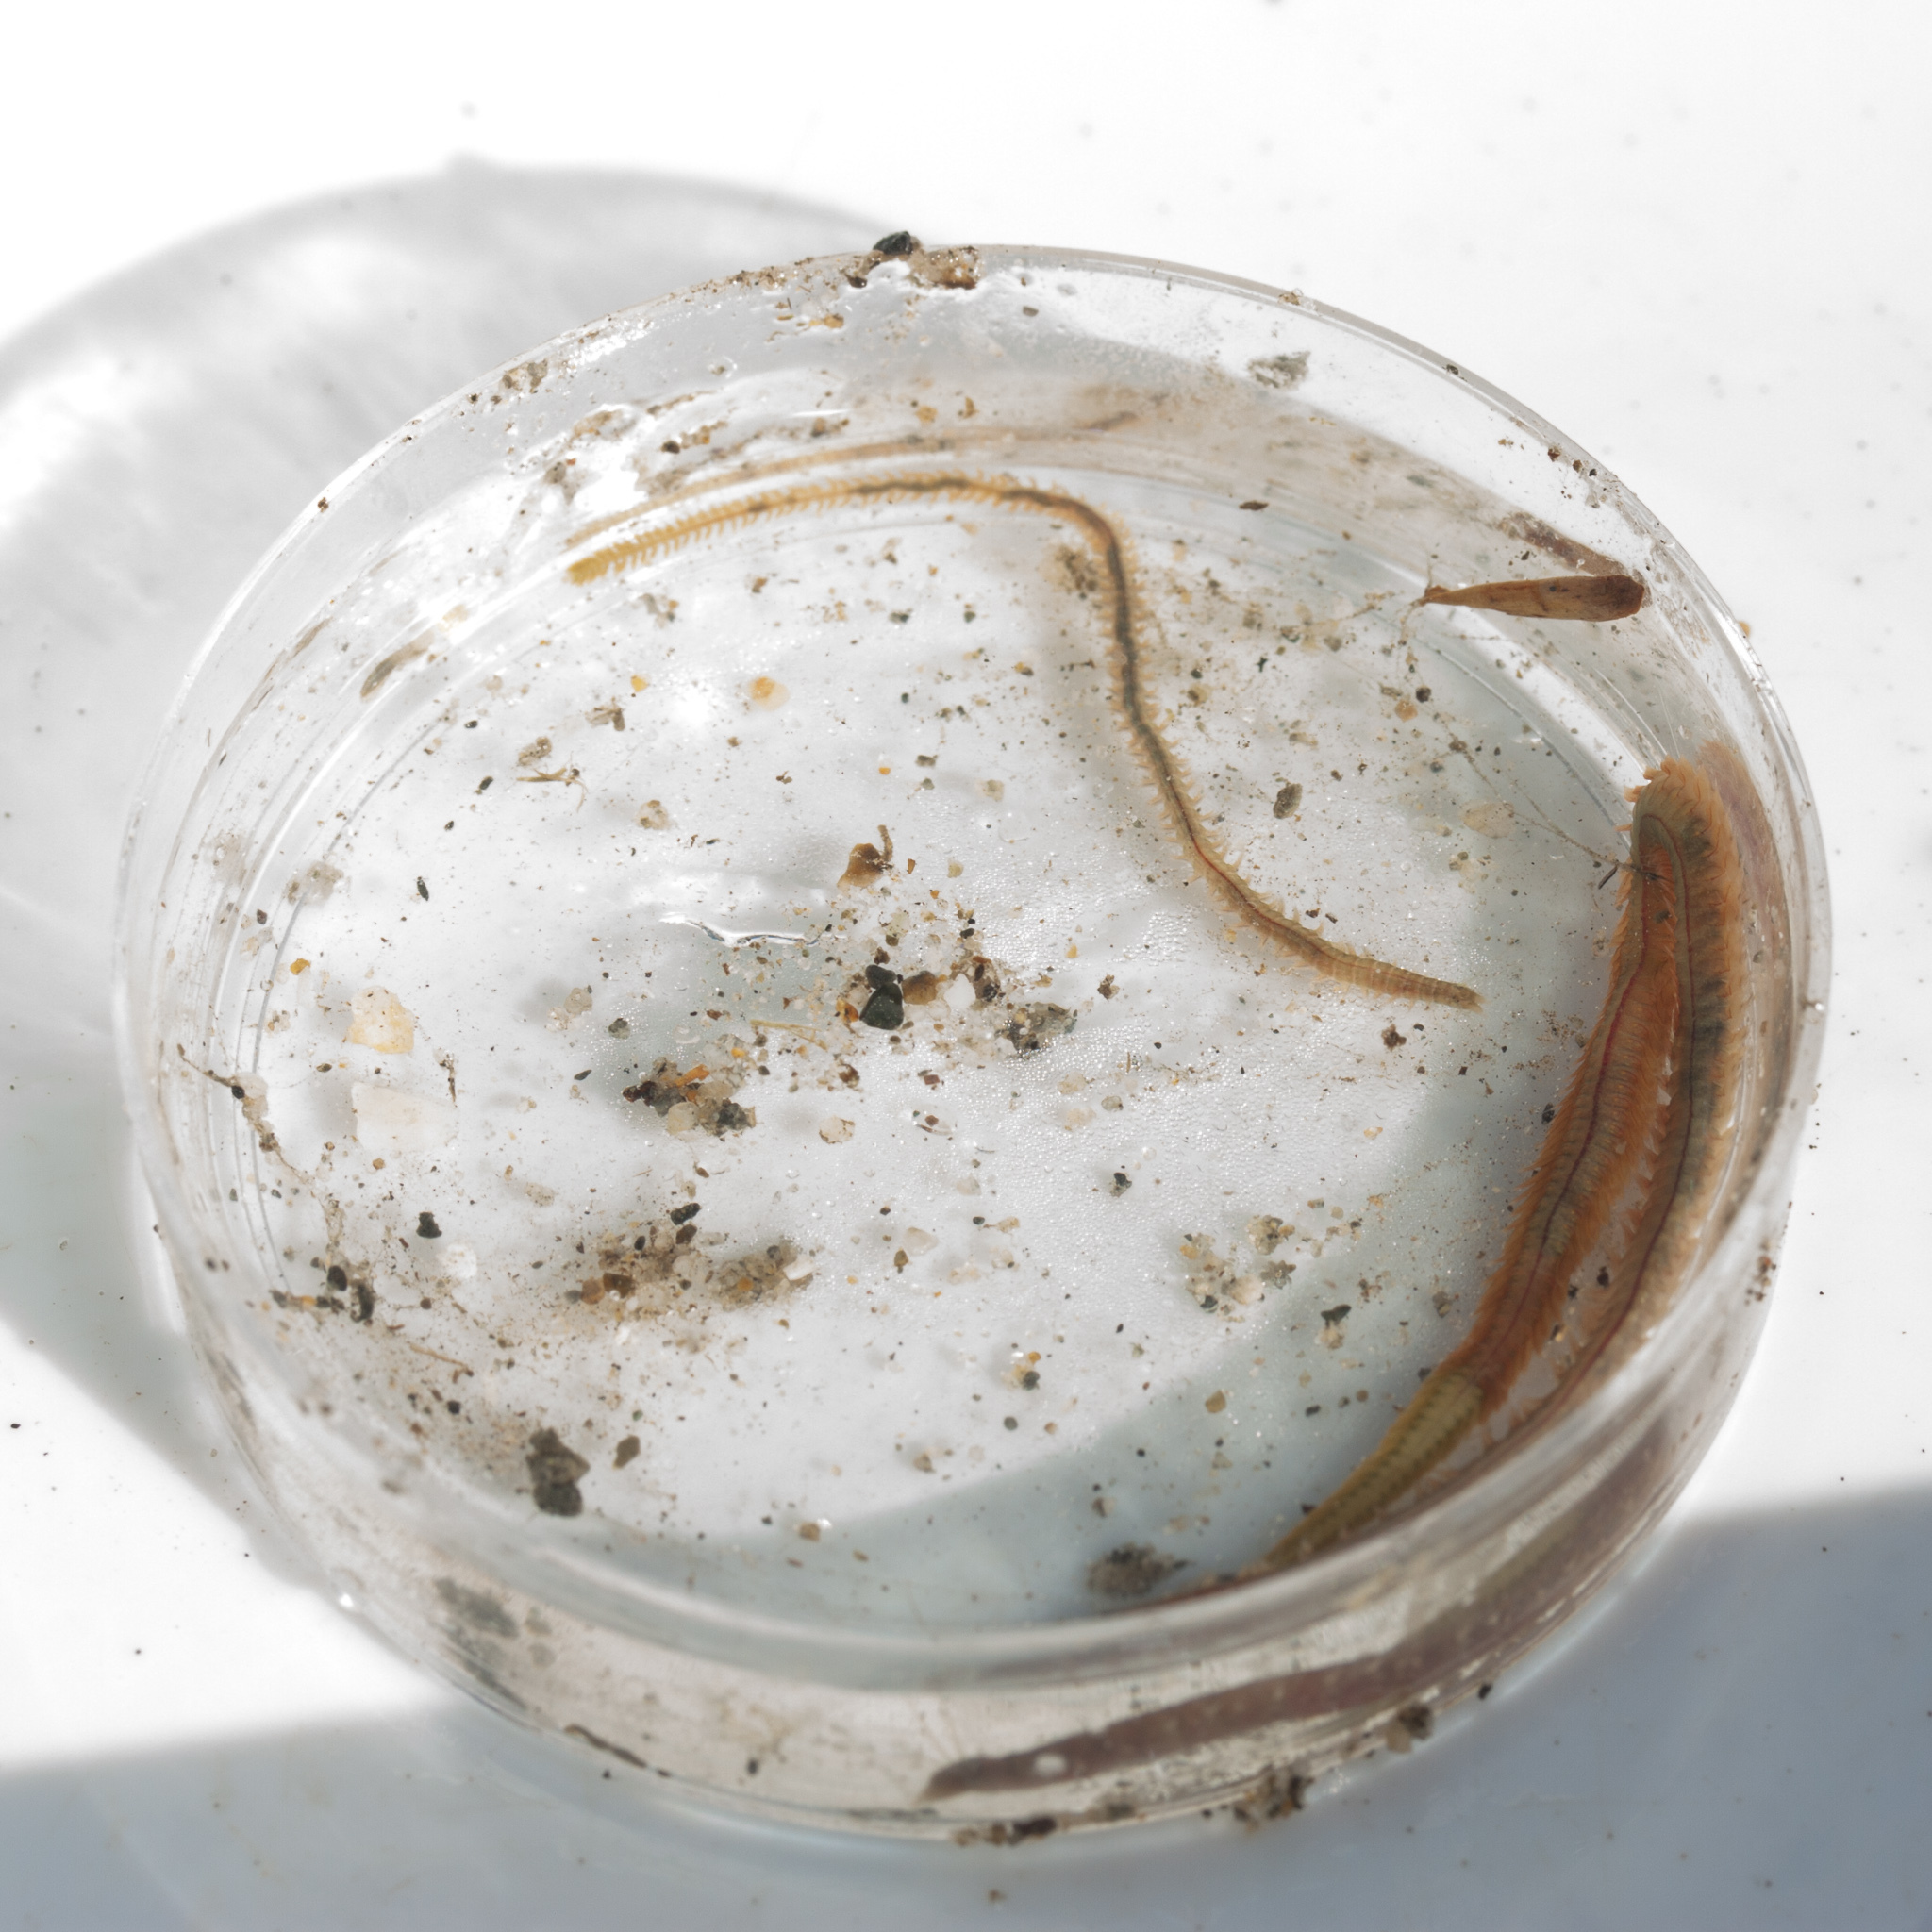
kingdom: Animalia
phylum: Annelida
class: Polychaeta
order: Phyllodocida
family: Nereididae
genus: Alitta
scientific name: Alitta succinea
